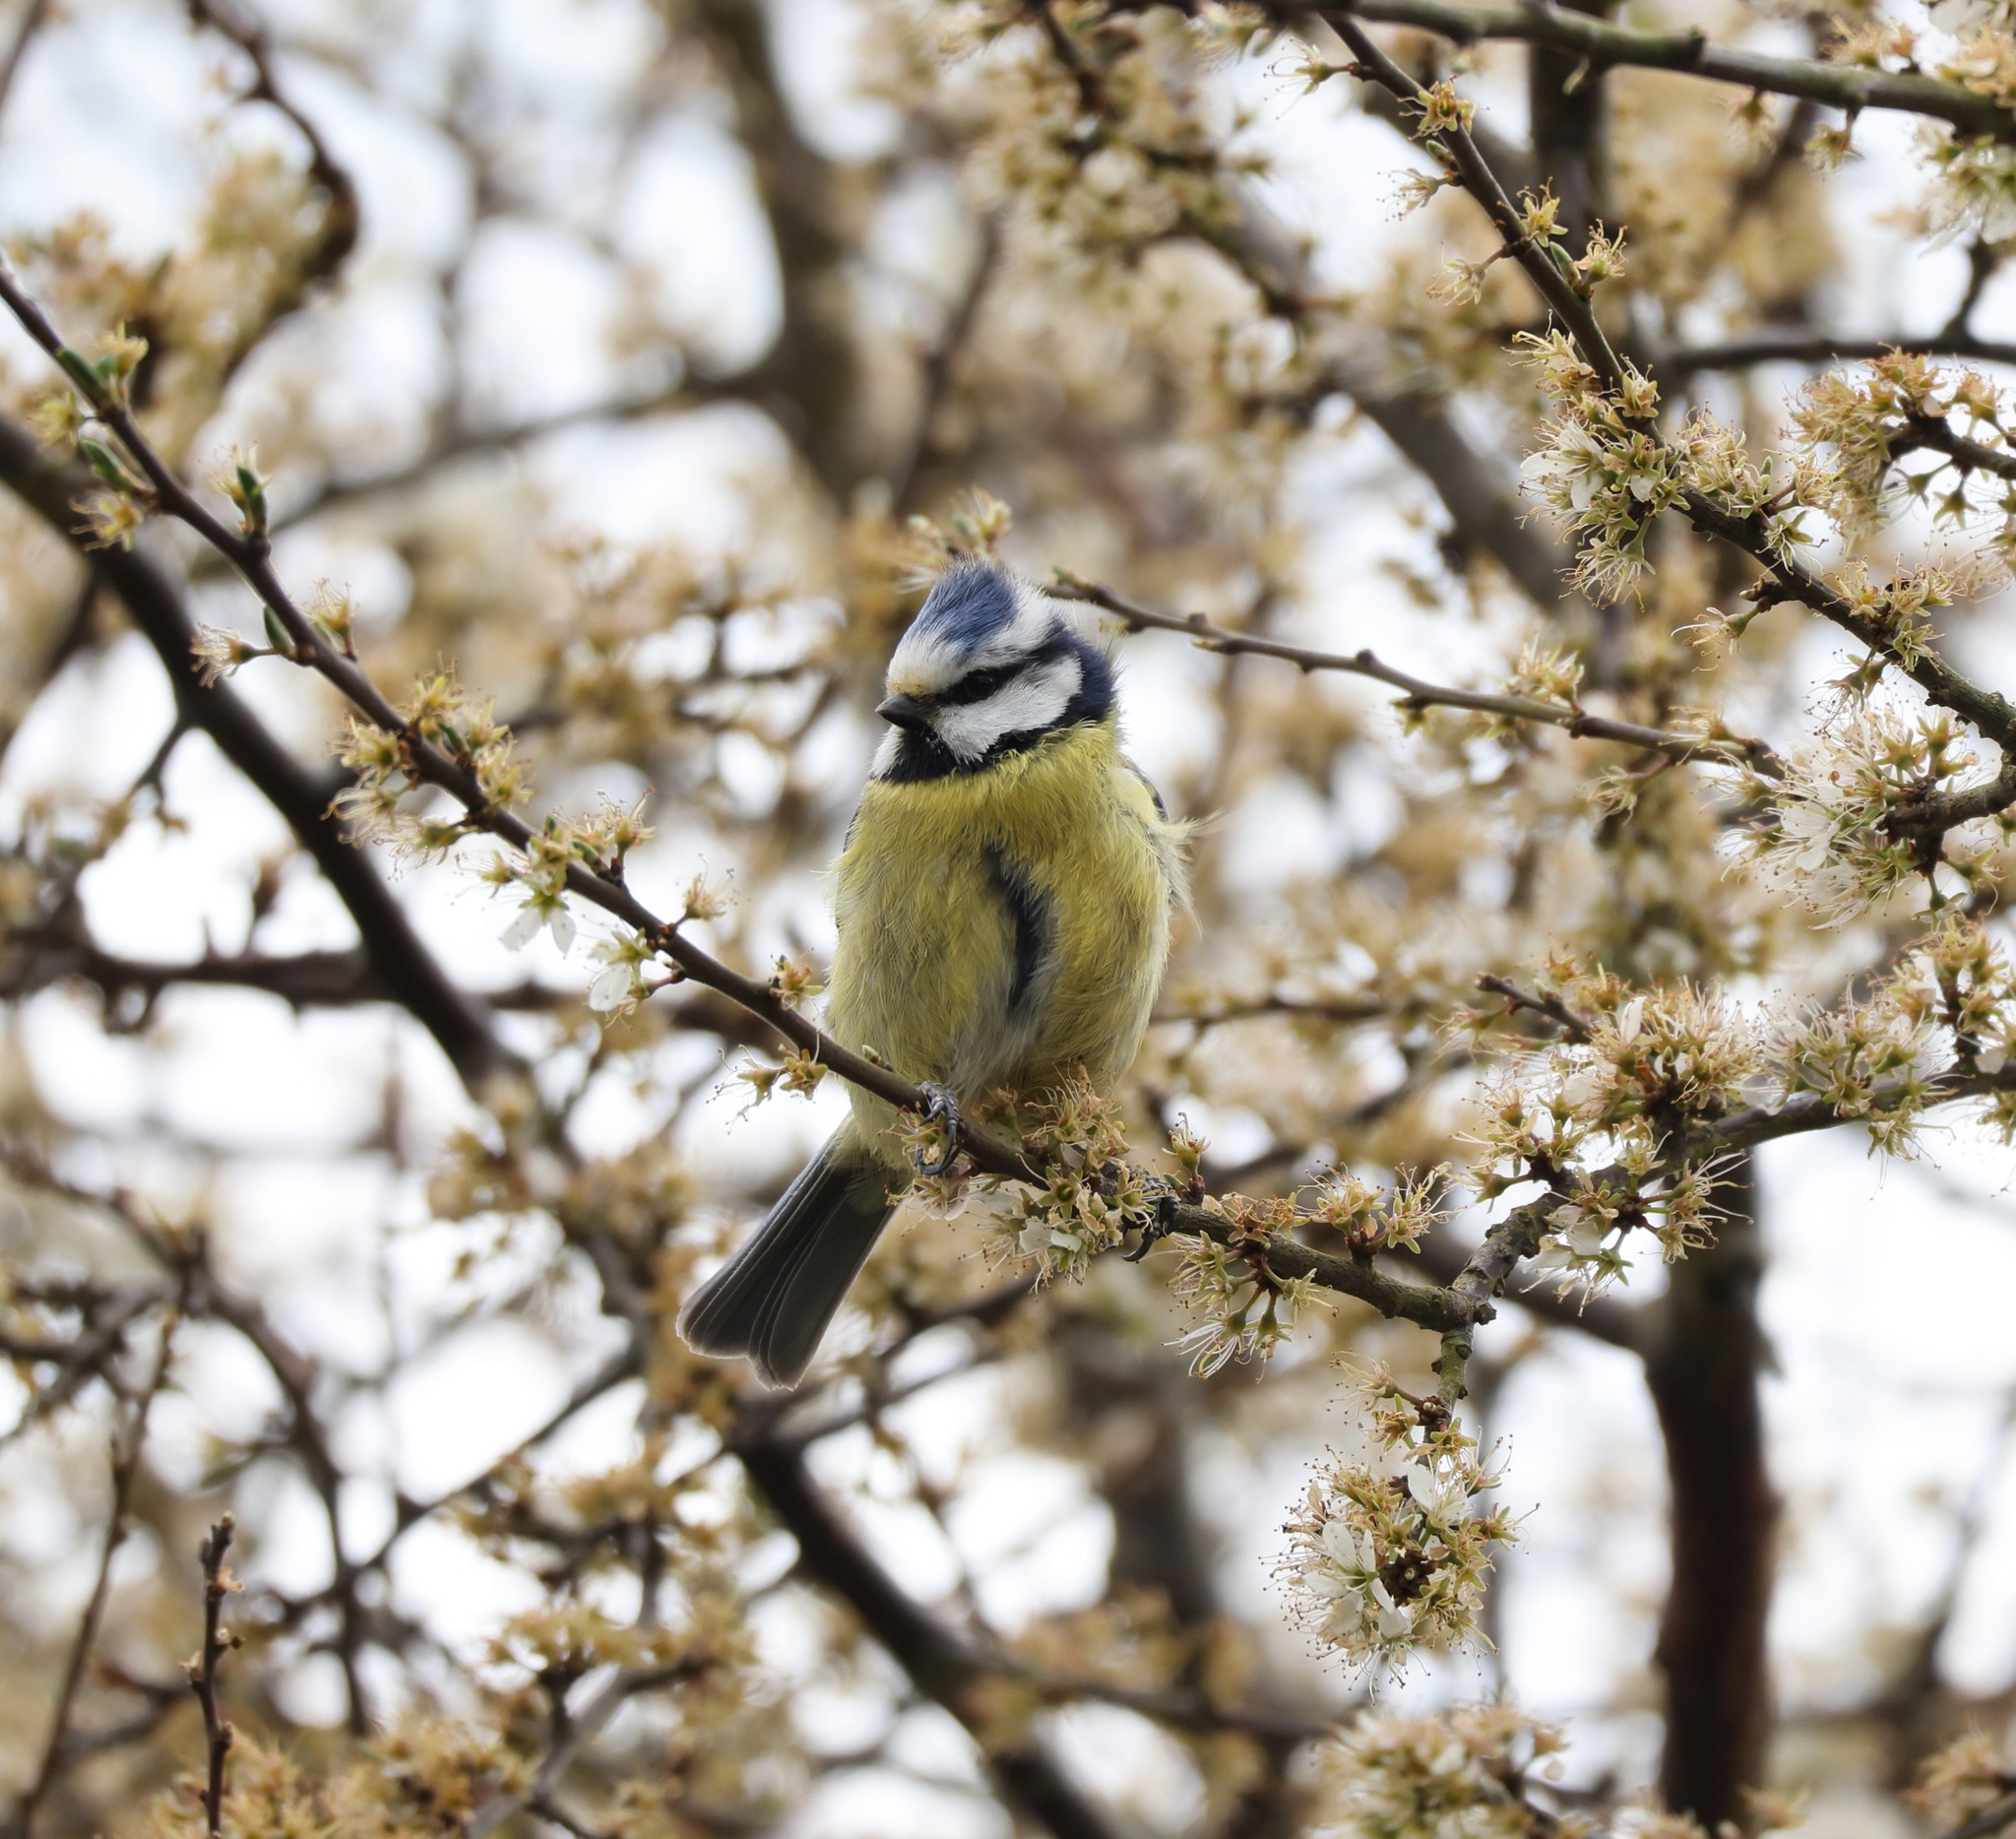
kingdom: Animalia
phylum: Chordata
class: Aves
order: Passeriformes
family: Paridae
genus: Cyanistes
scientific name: Cyanistes caeruleus
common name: Eurasian blue tit
